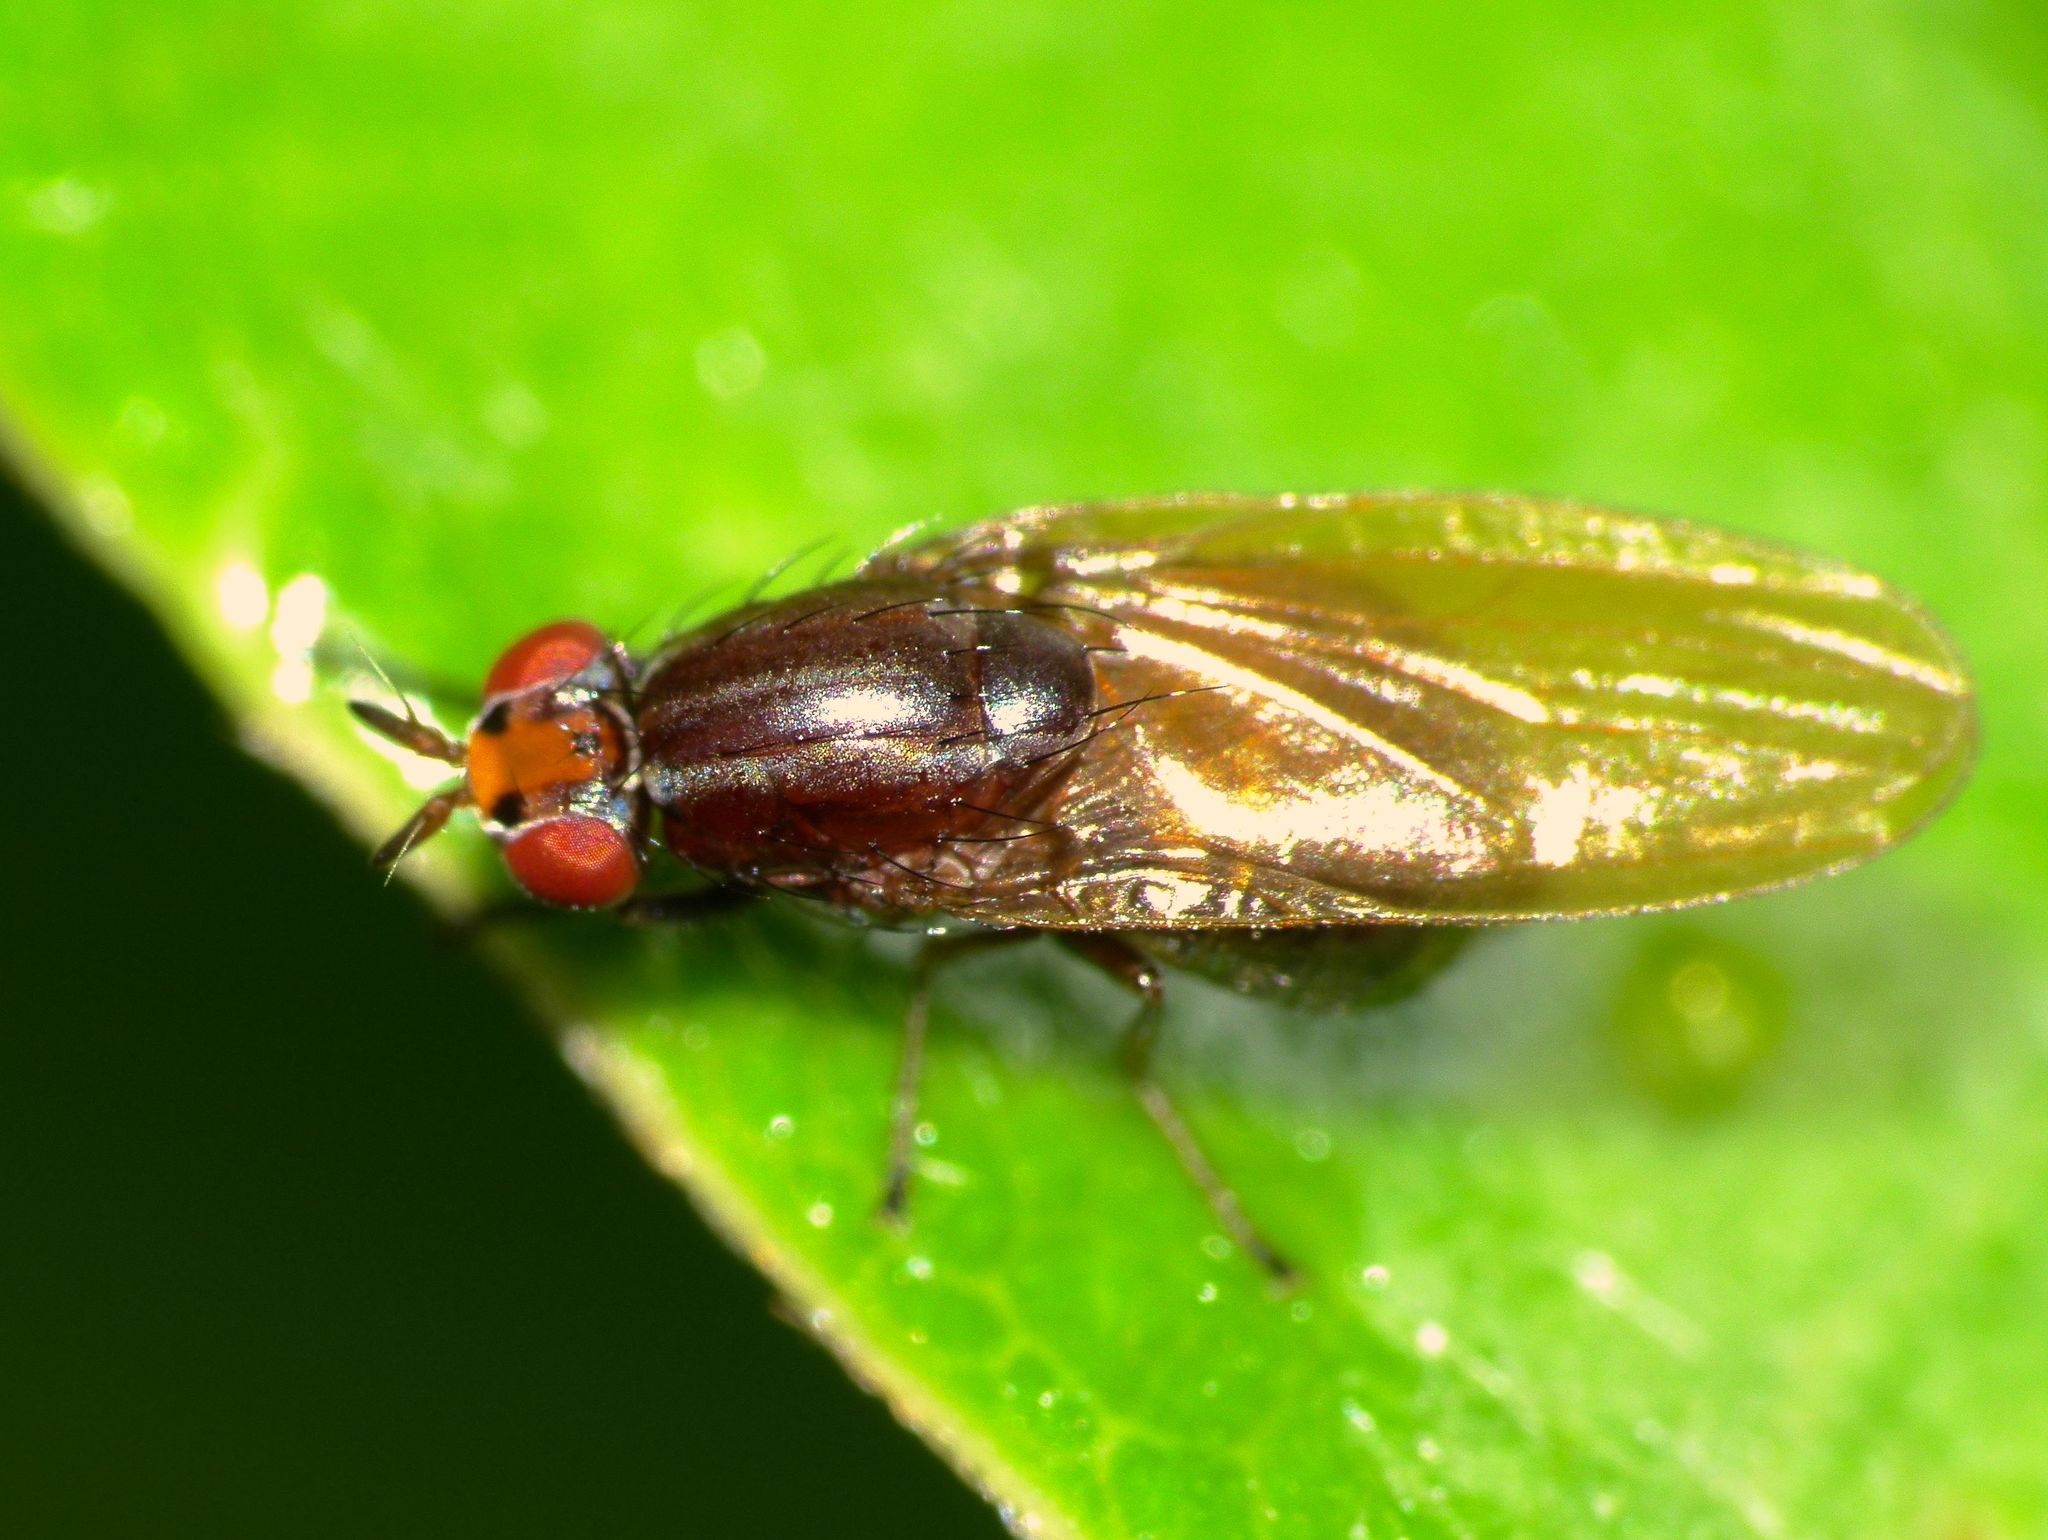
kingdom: Animalia
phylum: Arthropoda
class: Insecta
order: Diptera
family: Lauxaniidae
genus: Poecilohetaerella
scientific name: Poecilohetaerella punctatifrons
